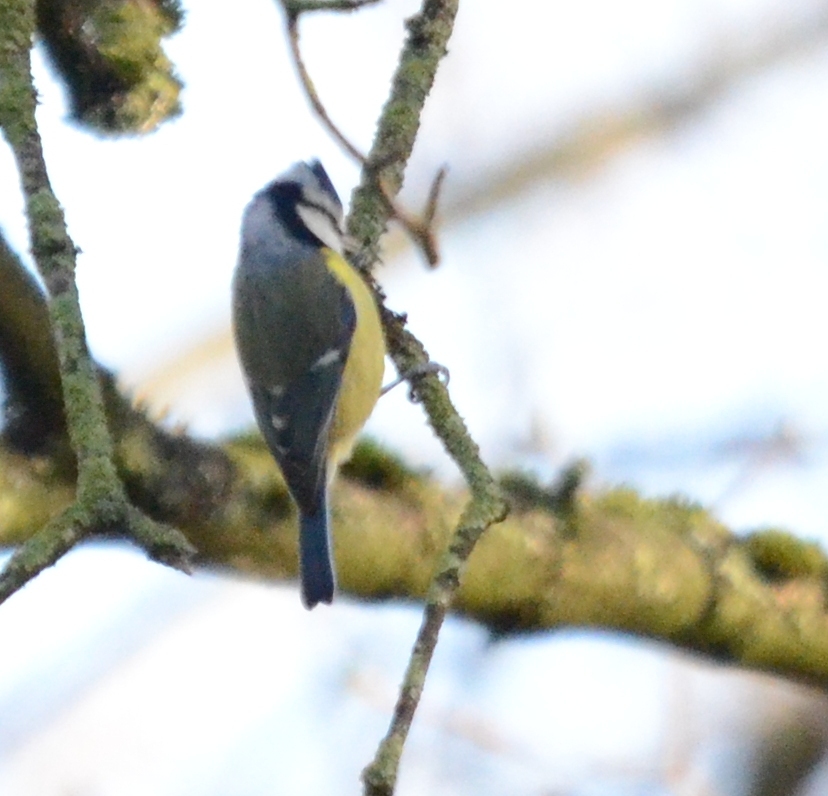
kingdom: Animalia
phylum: Chordata
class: Aves
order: Passeriformes
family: Paridae
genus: Cyanistes
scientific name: Cyanistes caeruleus
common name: Eurasian blue tit
